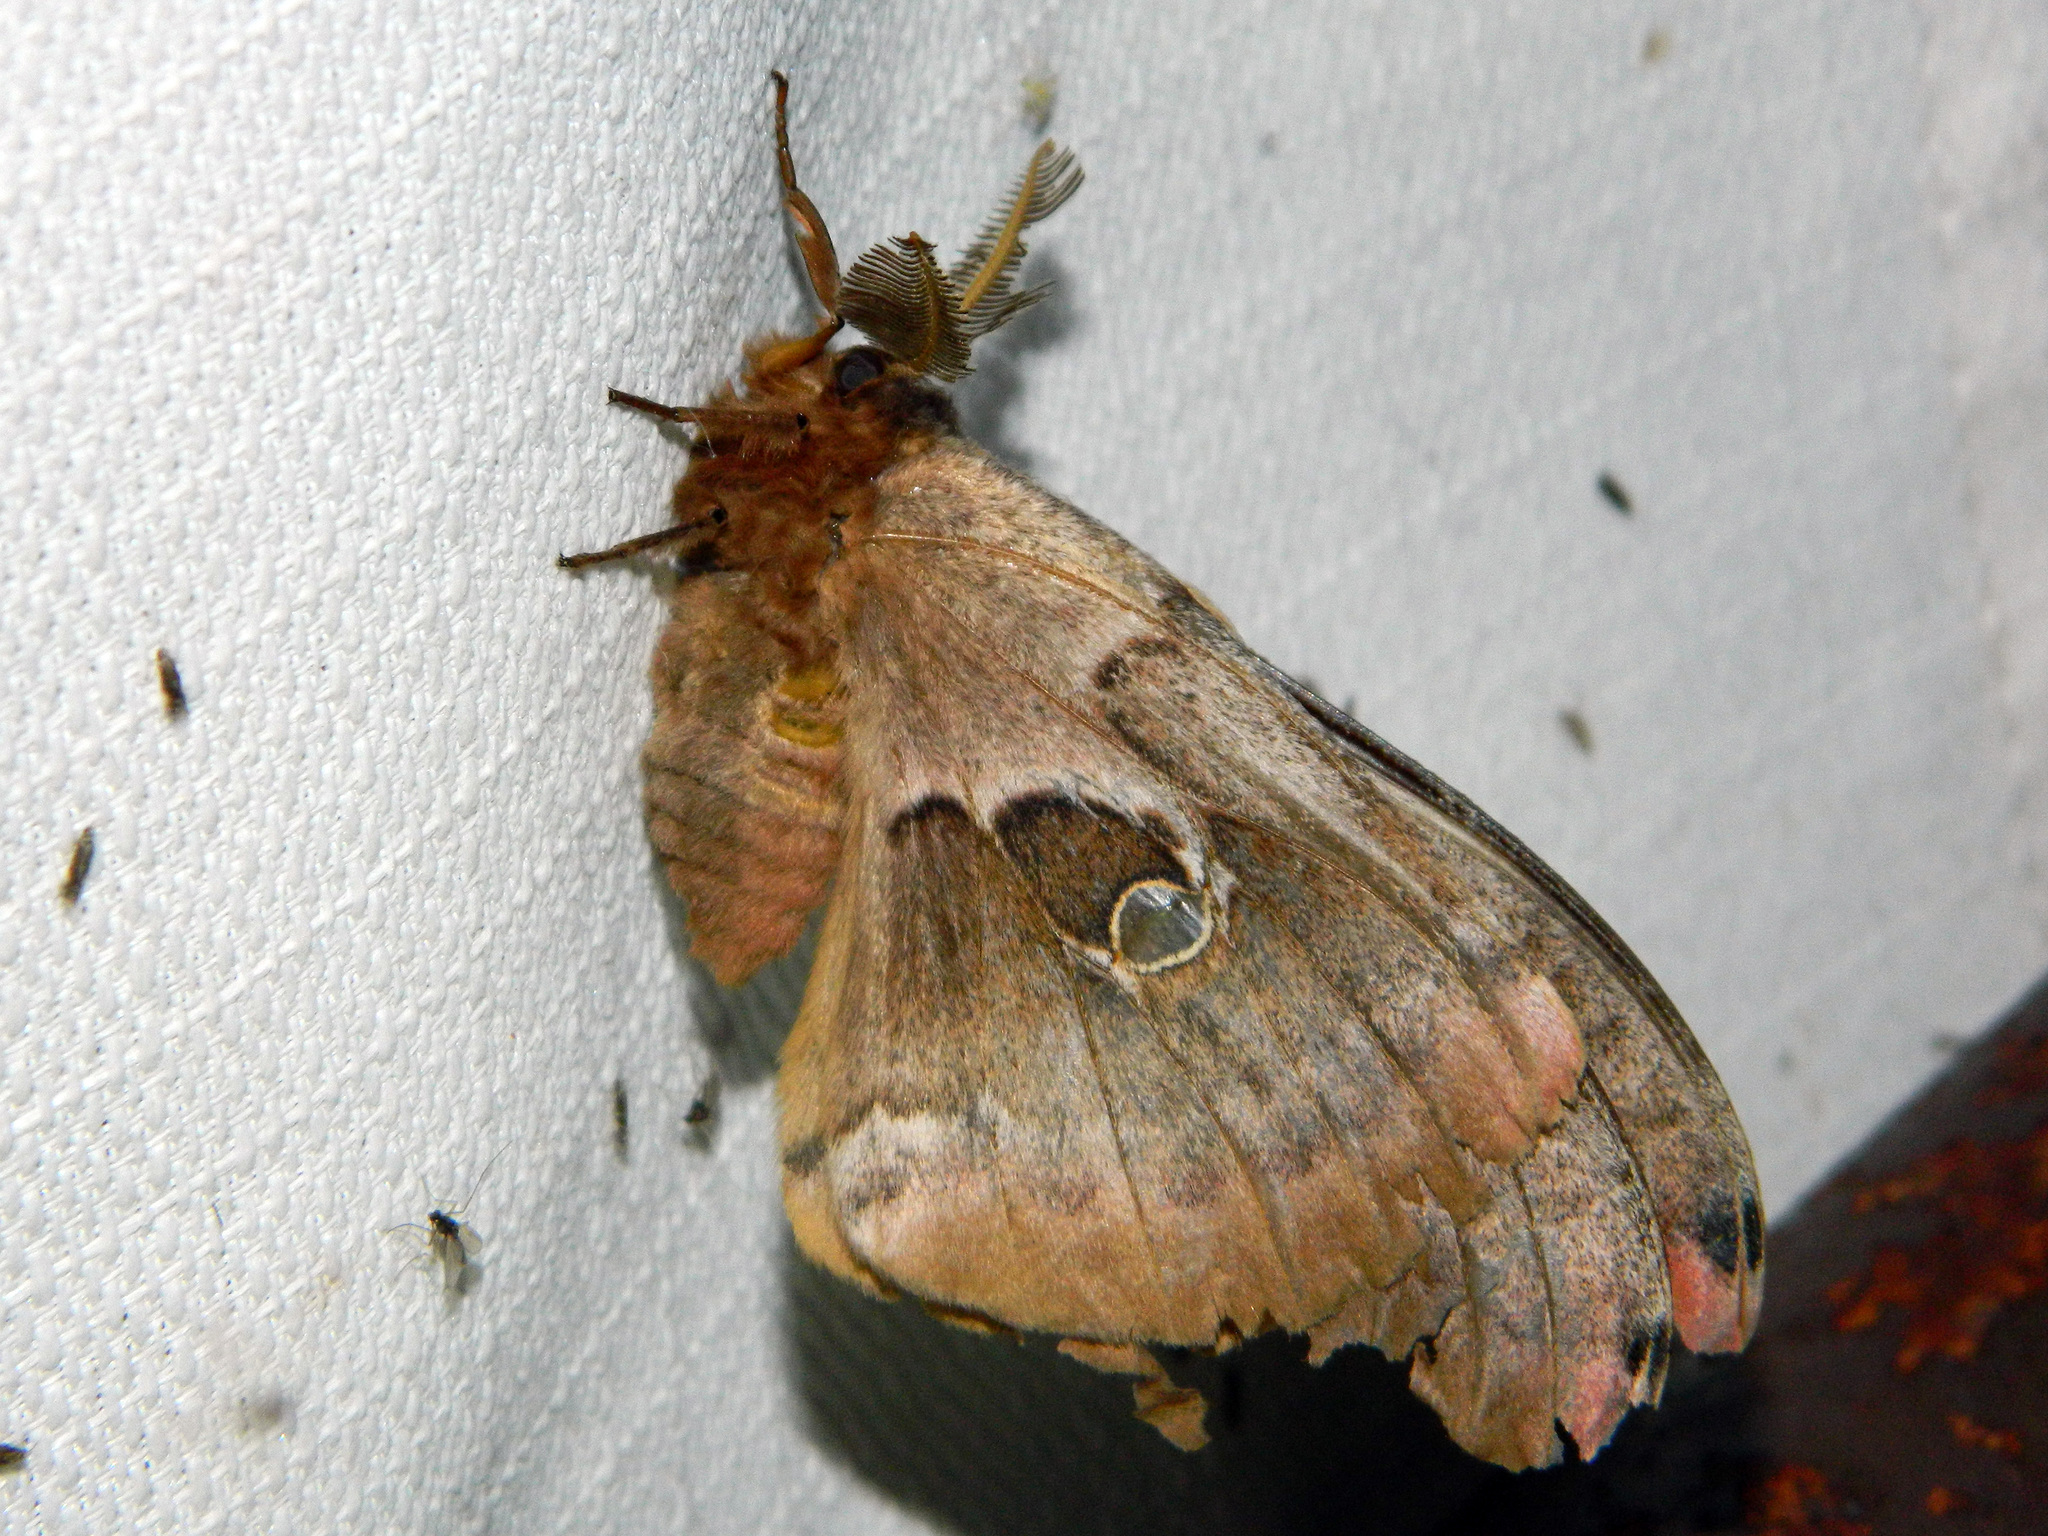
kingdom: Animalia
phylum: Arthropoda
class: Insecta
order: Lepidoptera
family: Saturniidae
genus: Antheraea
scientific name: Antheraea polyphemus
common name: Polyphemus moth
